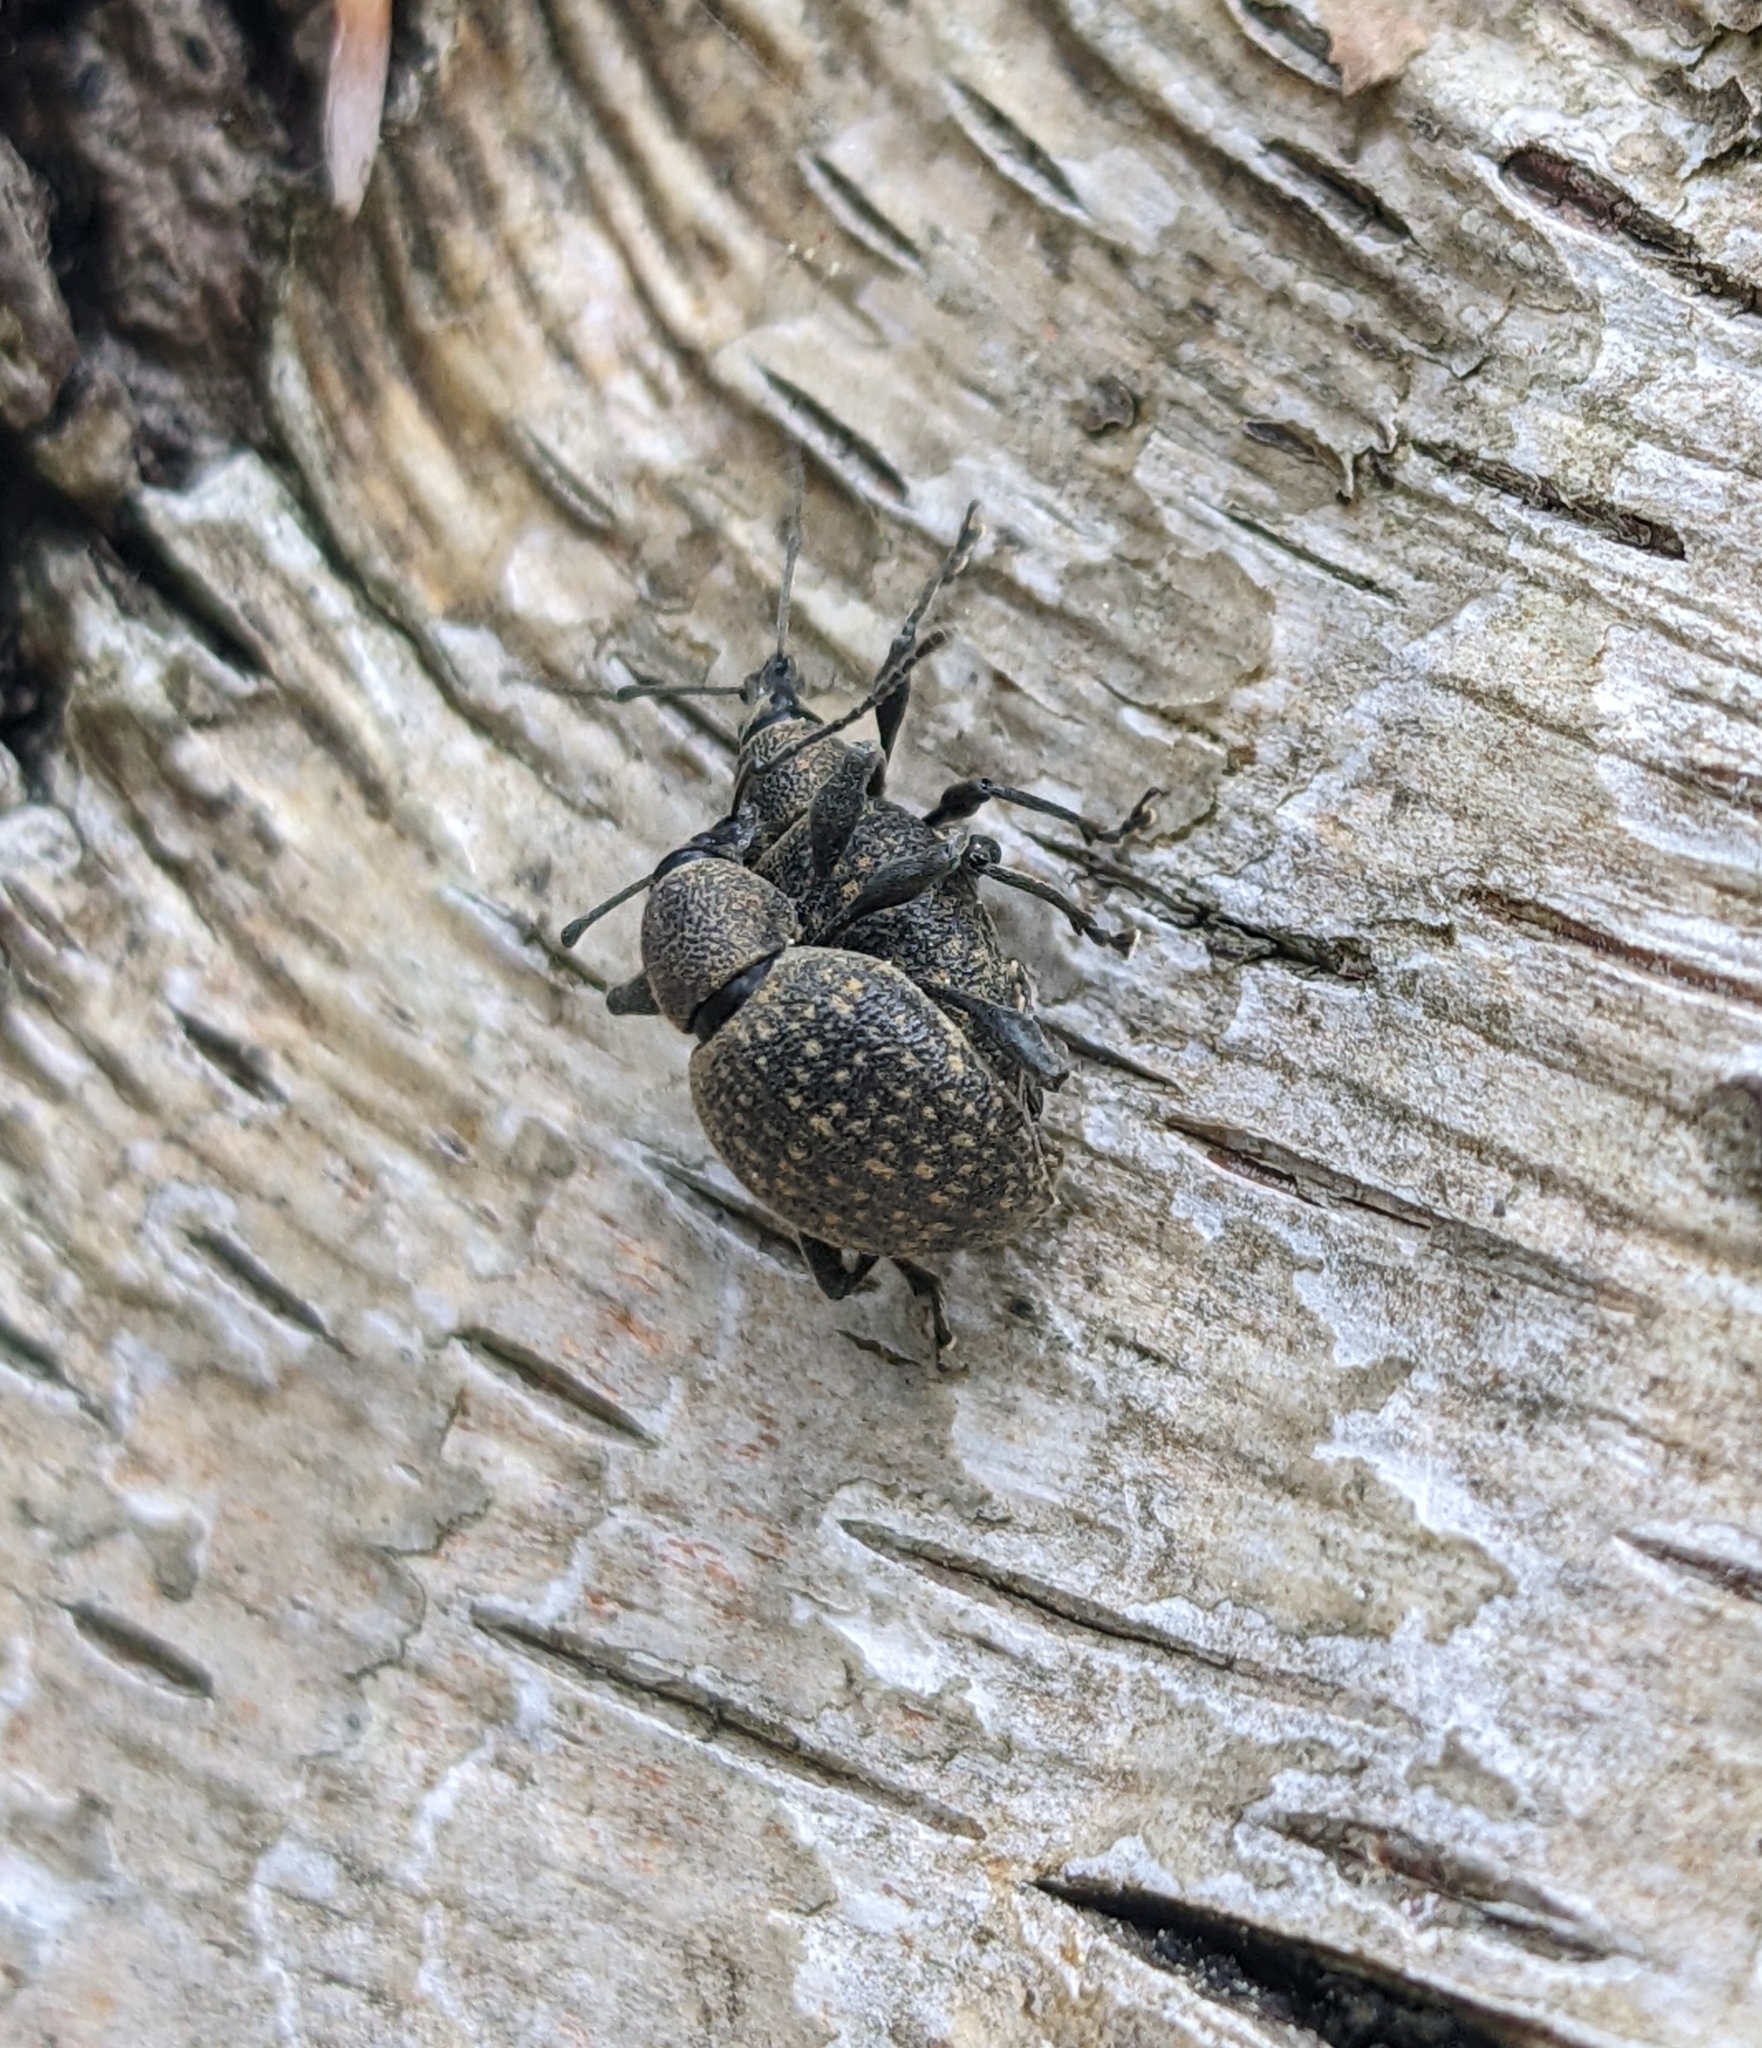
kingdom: Animalia
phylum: Arthropoda
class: Insecta
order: Coleoptera
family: Curculionidae
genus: Otiorhynchus
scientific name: Otiorhynchus armadillo
